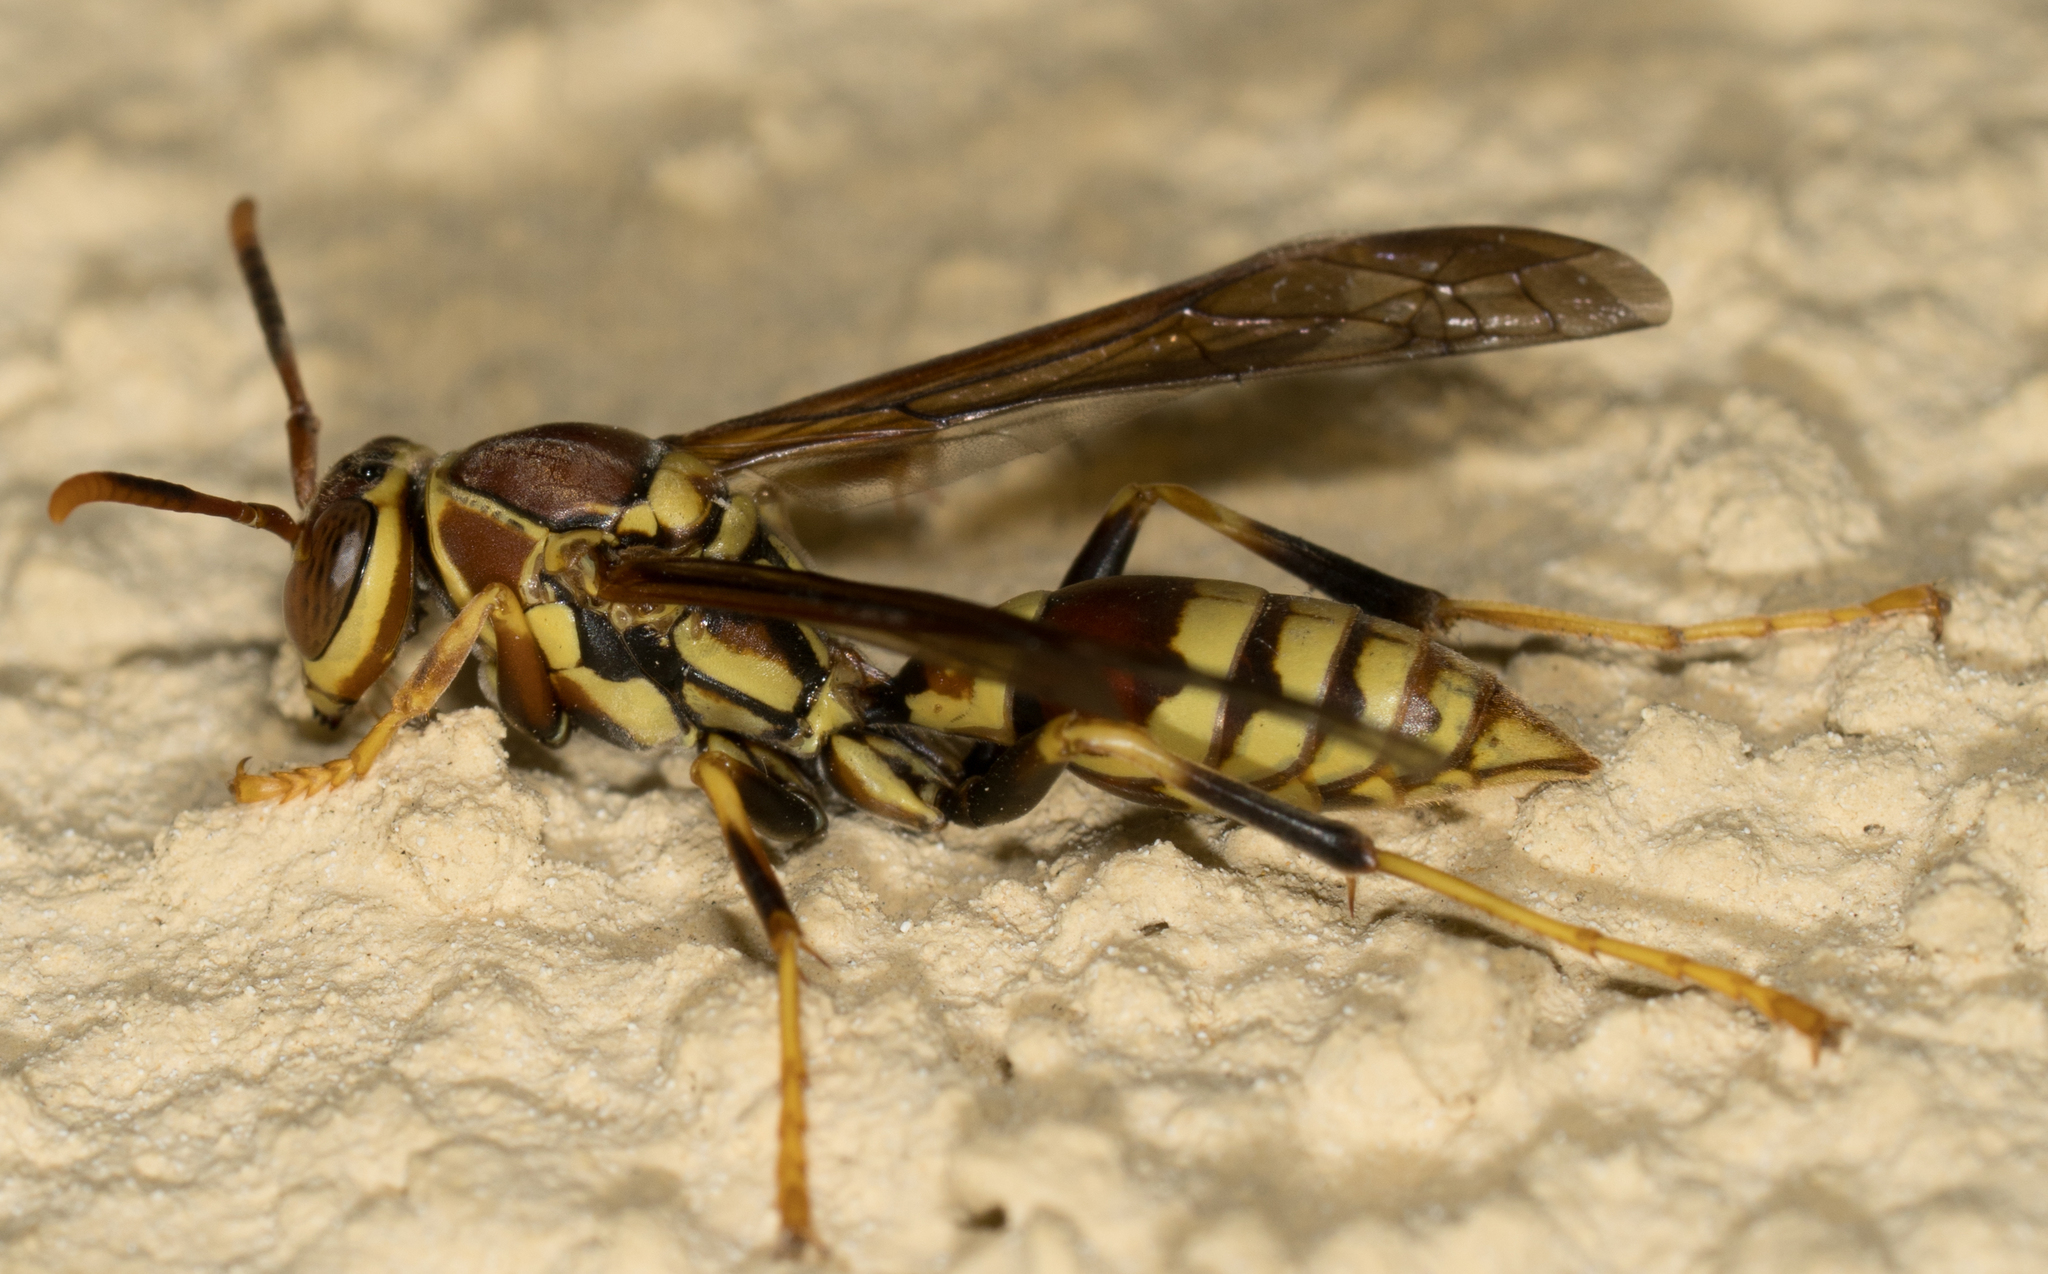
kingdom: Animalia
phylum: Arthropoda
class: Insecta
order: Hymenoptera
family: Eumenidae
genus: Polistes
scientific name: Polistes exclamans
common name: Paper wasp
